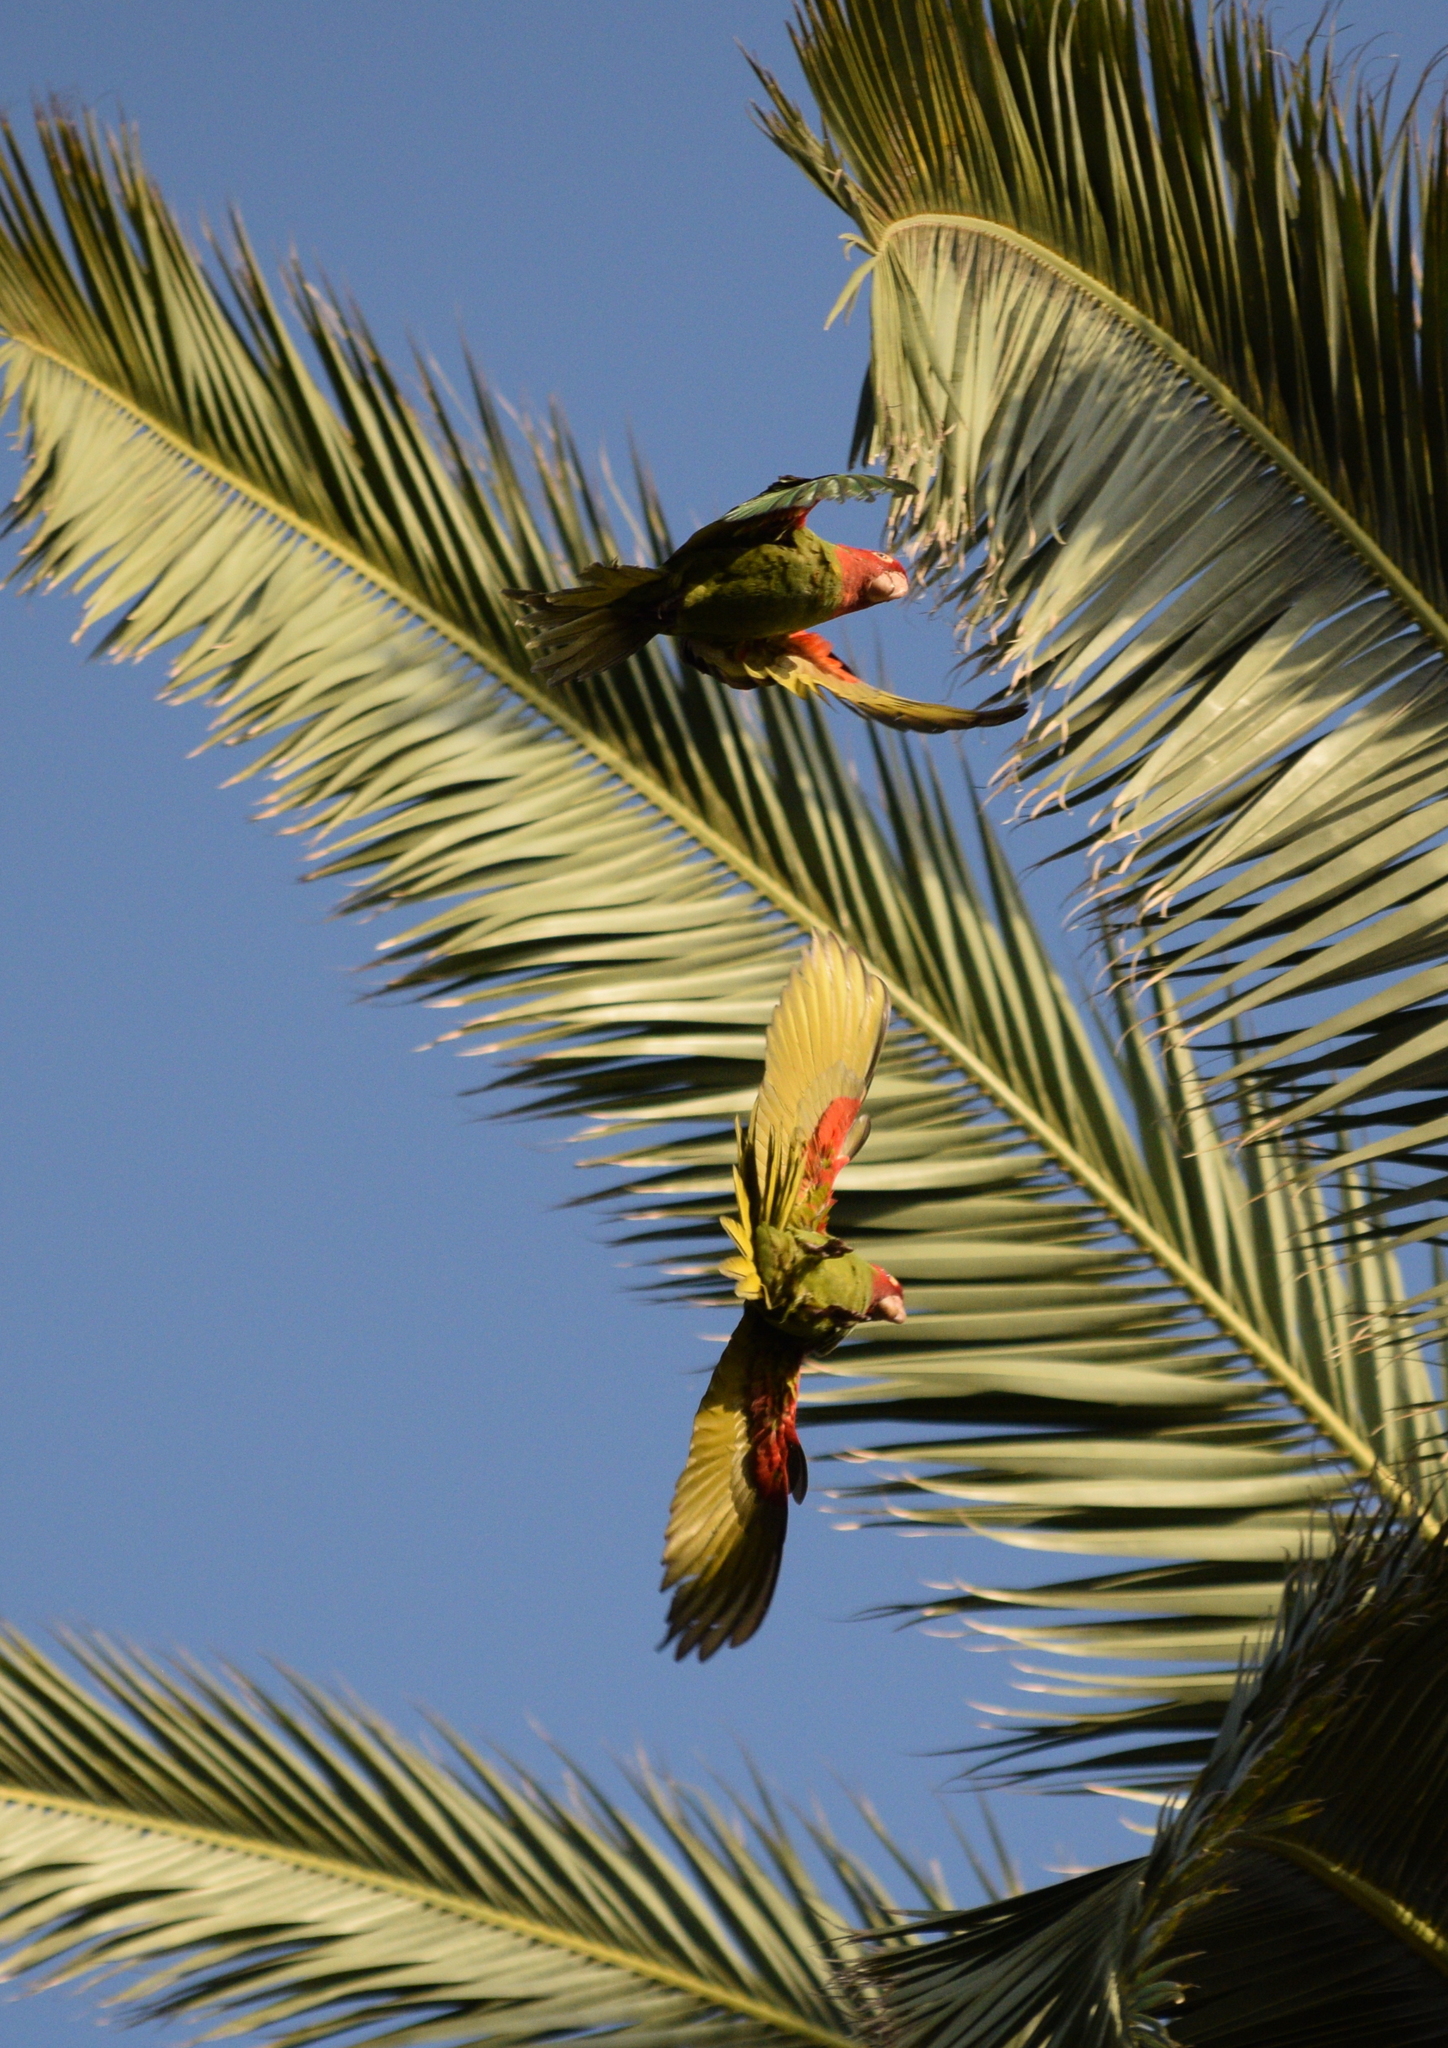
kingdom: Animalia
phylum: Chordata
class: Aves
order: Psittaciformes
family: Psittacidae
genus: Aratinga
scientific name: Aratinga erythrogenys
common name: Red-masked parakeet
